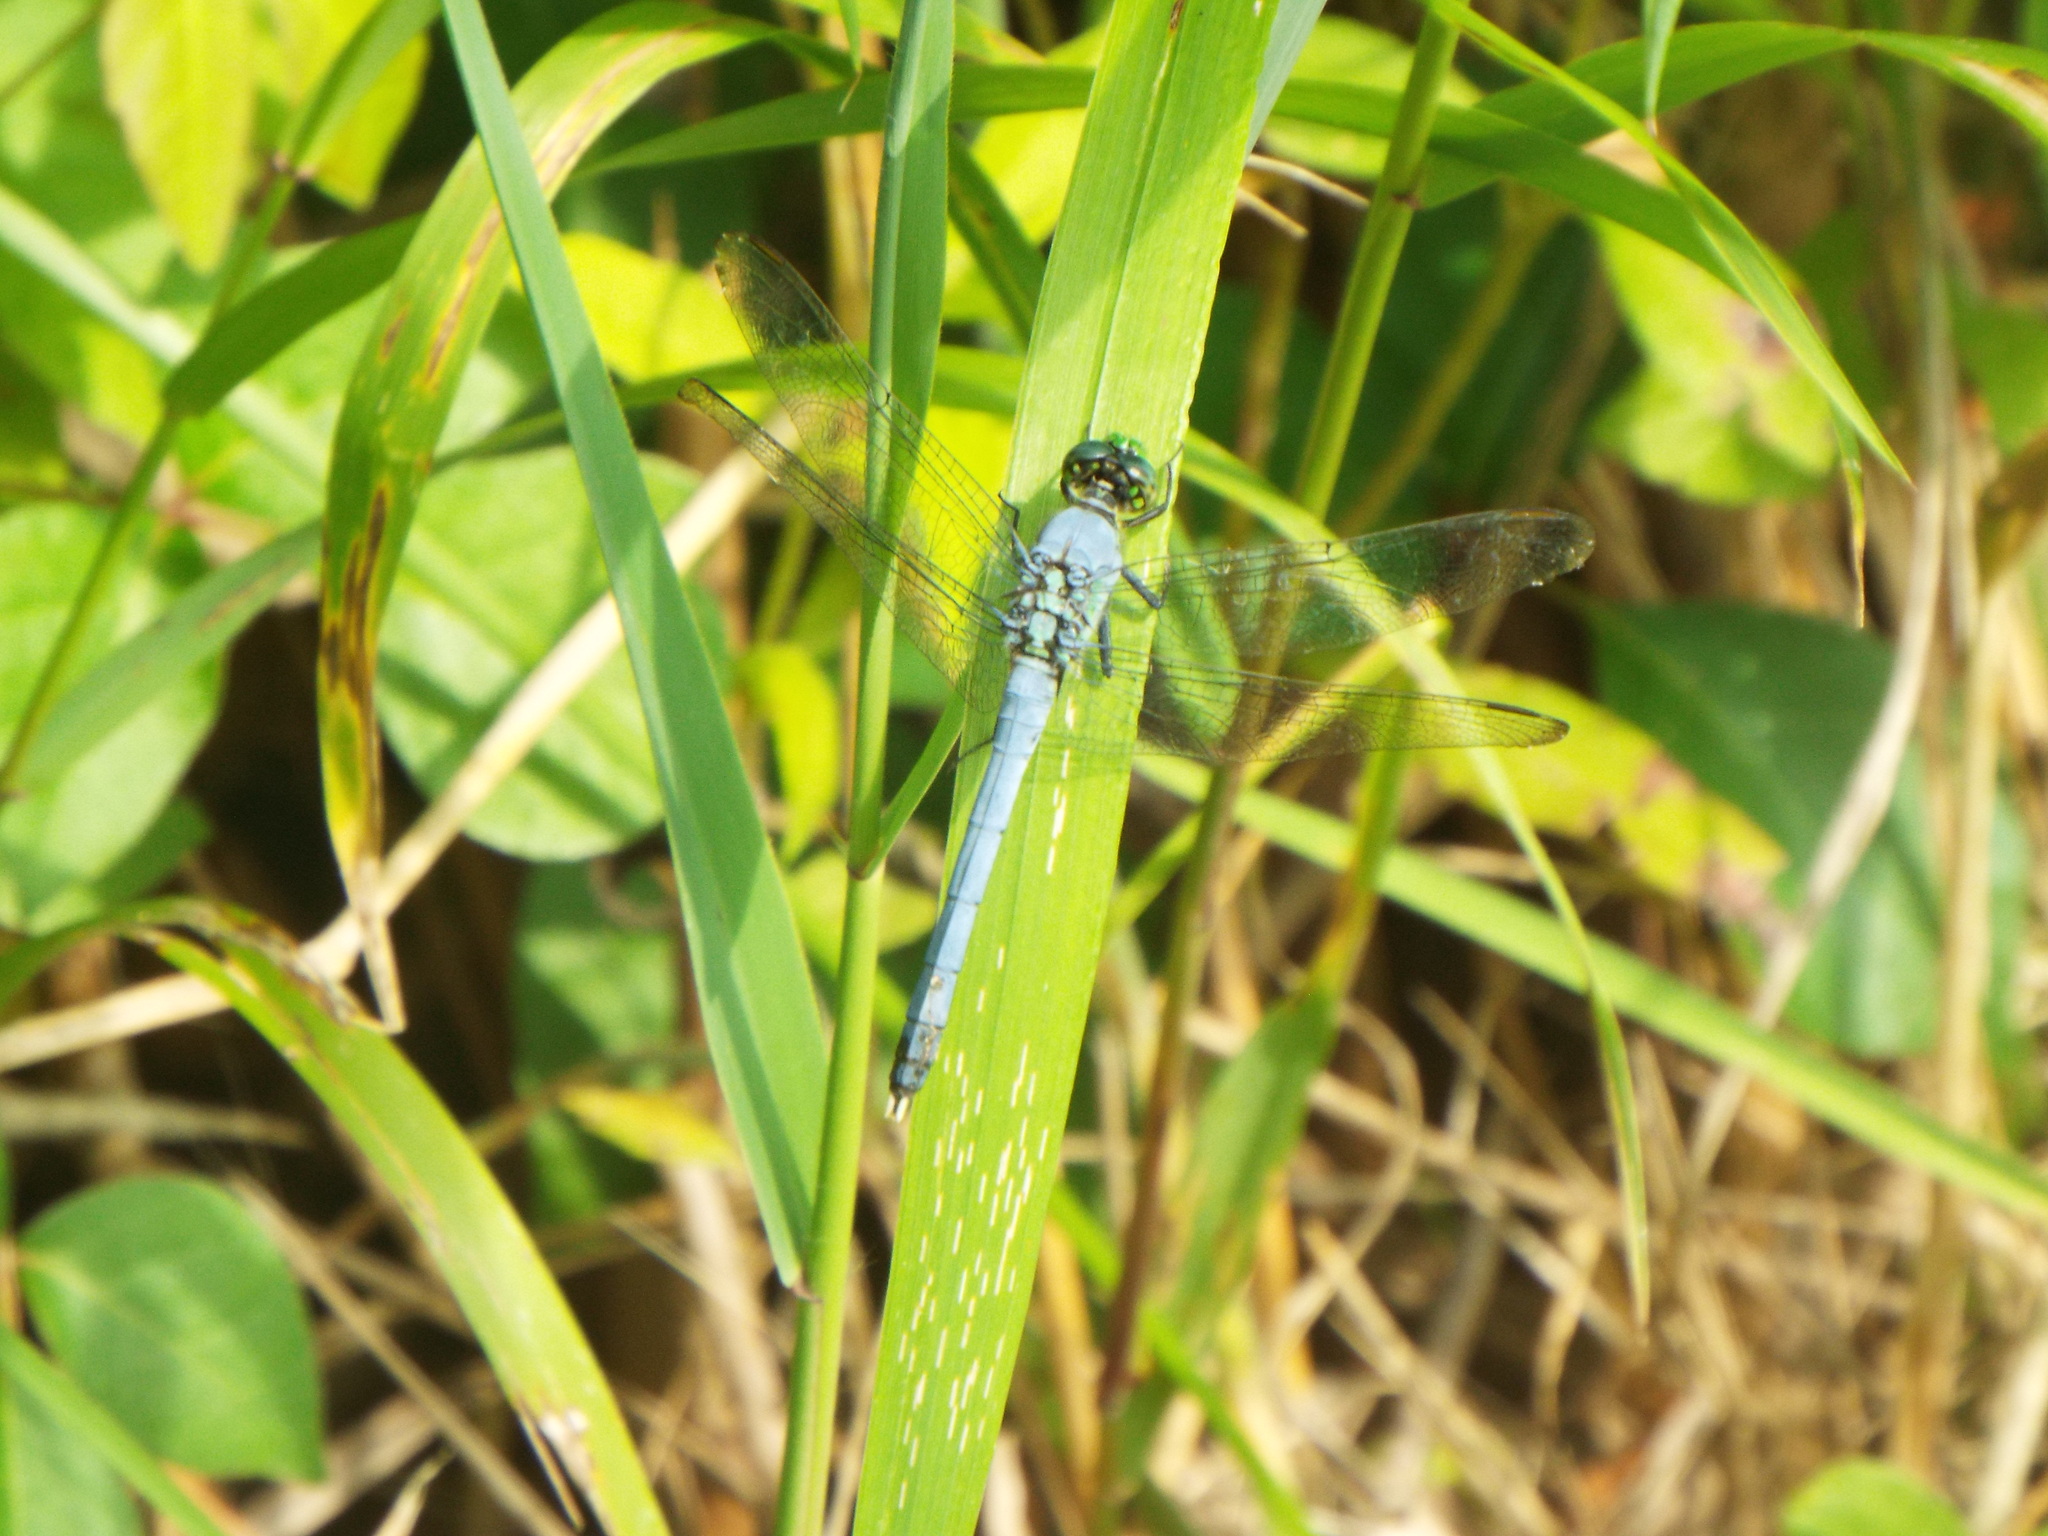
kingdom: Animalia
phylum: Arthropoda
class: Insecta
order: Odonata
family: Libellulidae
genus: Erythemis
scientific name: Erythemis simplicicollis
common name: Eastern pondhawk
